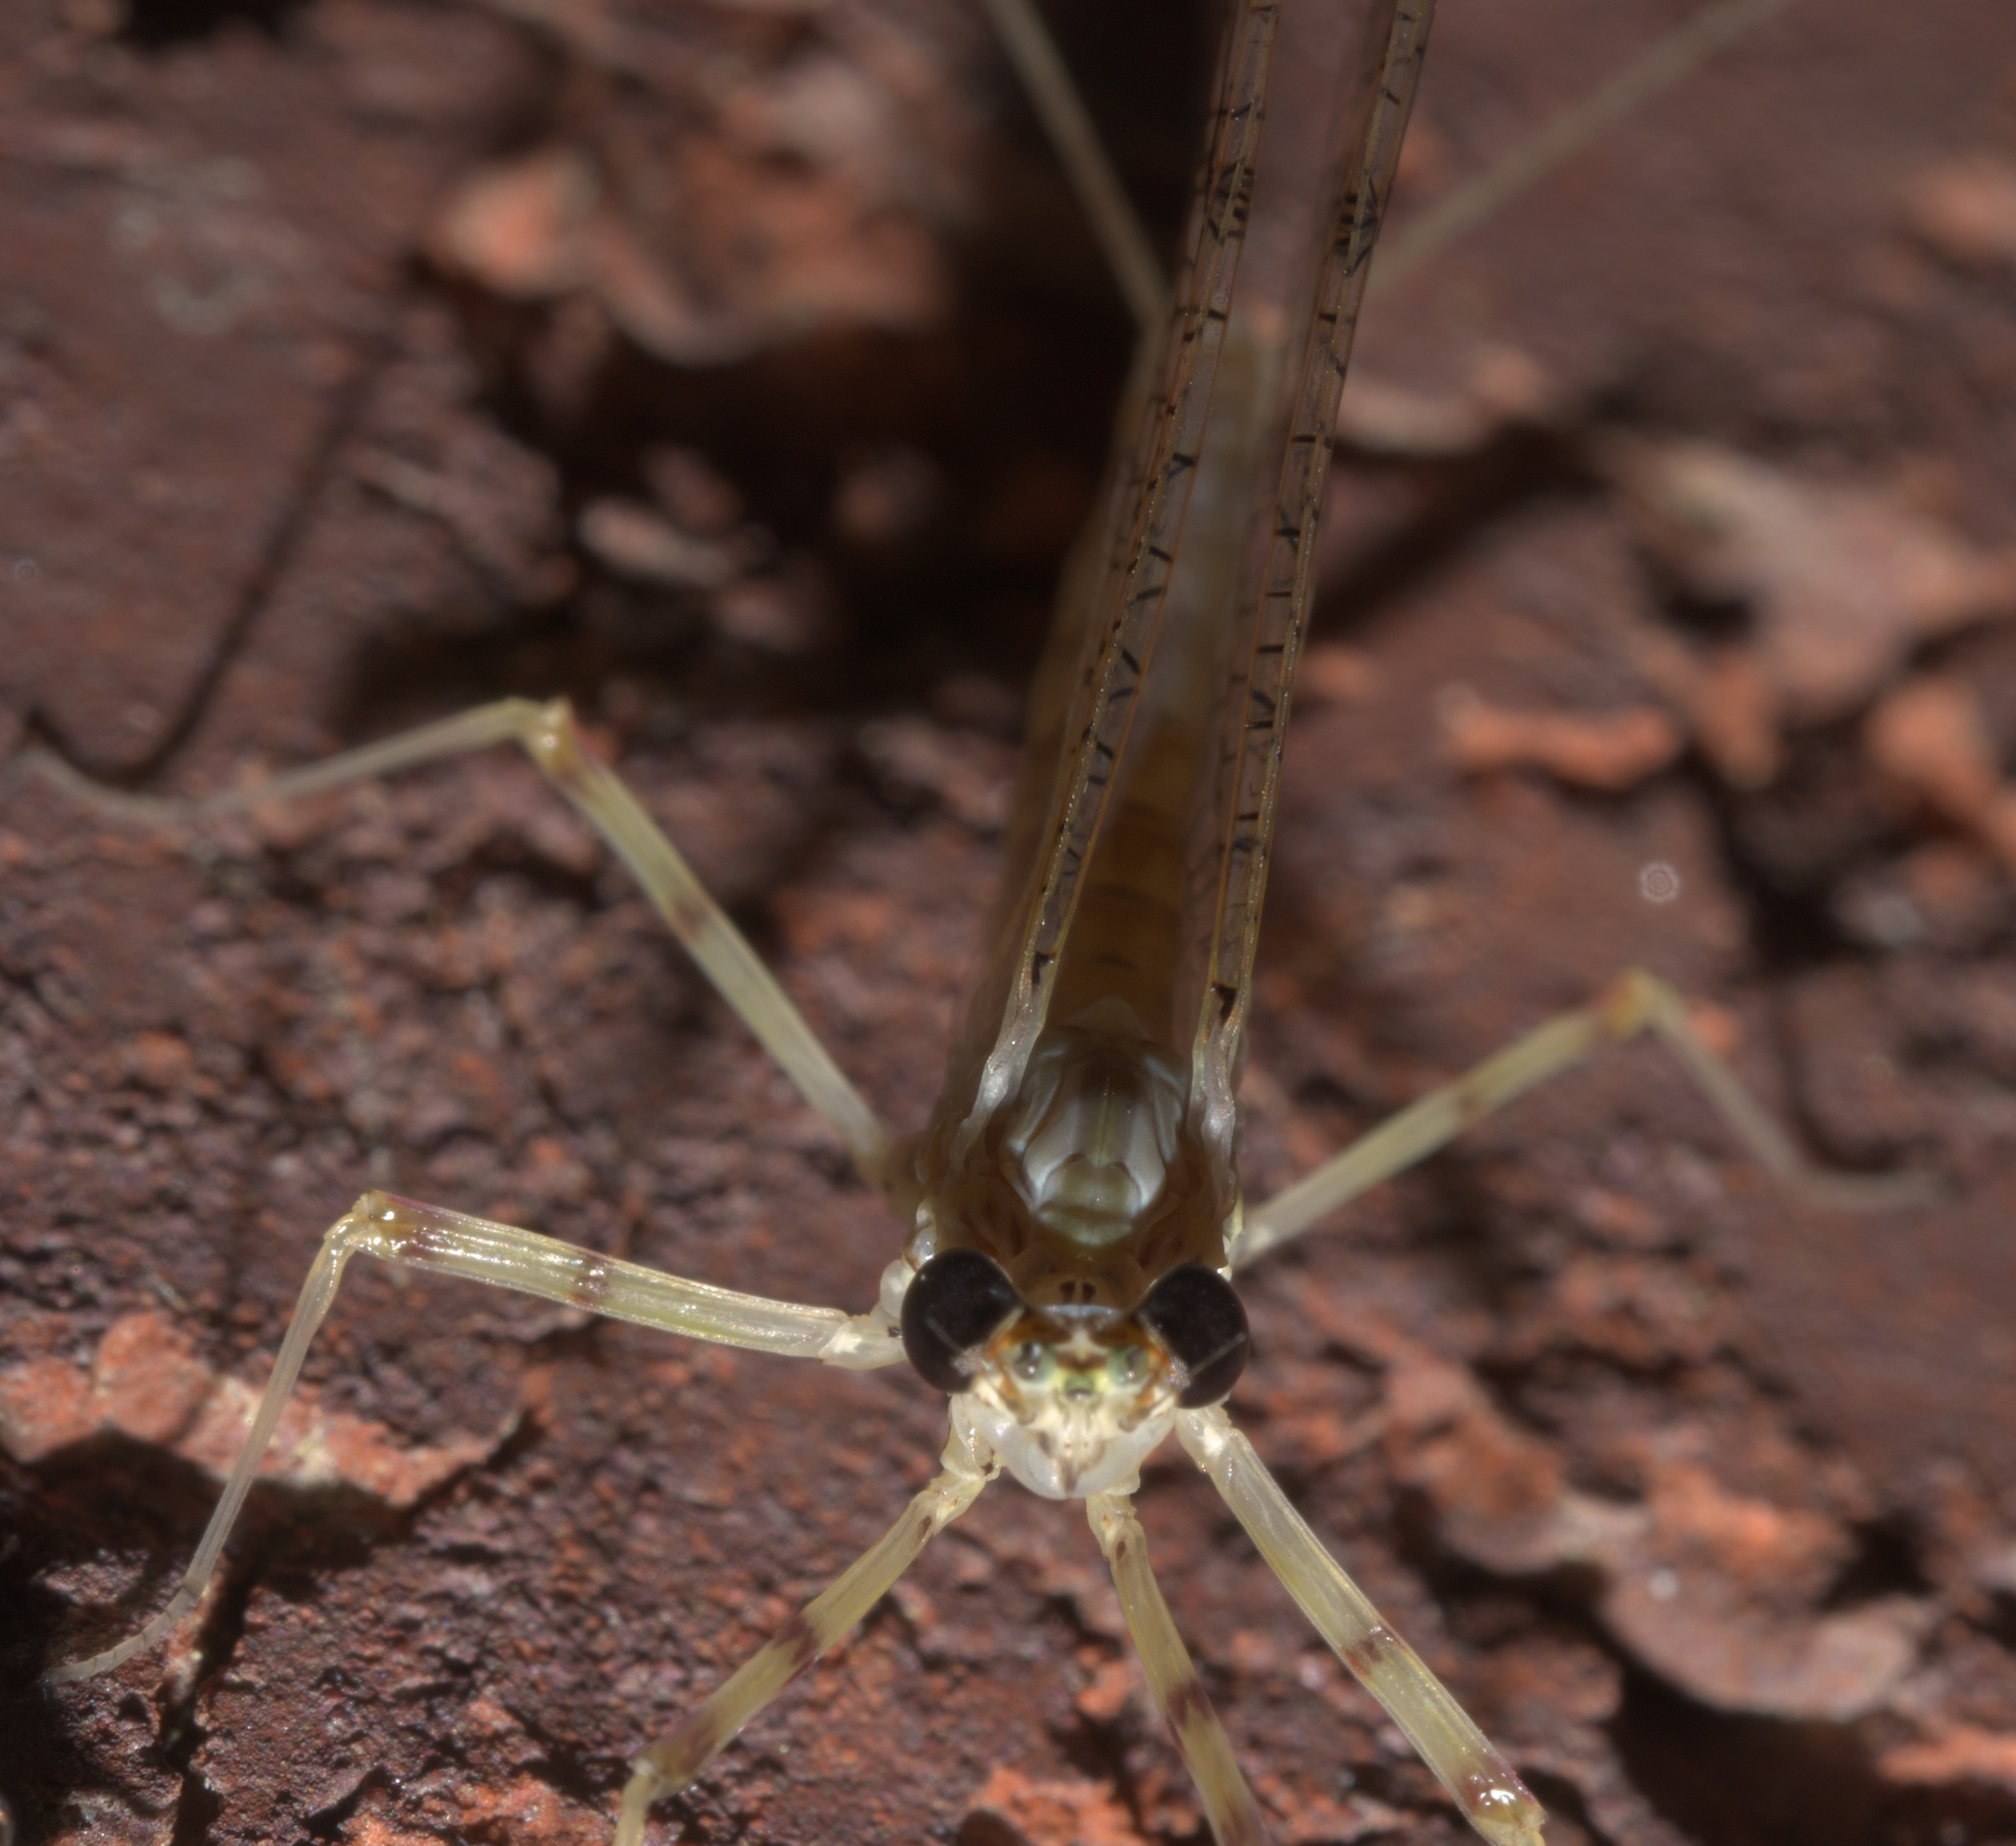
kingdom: Animalia
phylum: Arthropoda
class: Insecta
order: Ephemeroptera
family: Heptageniidae
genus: Stenonema
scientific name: Stenonema femoratum
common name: Dark cahill
